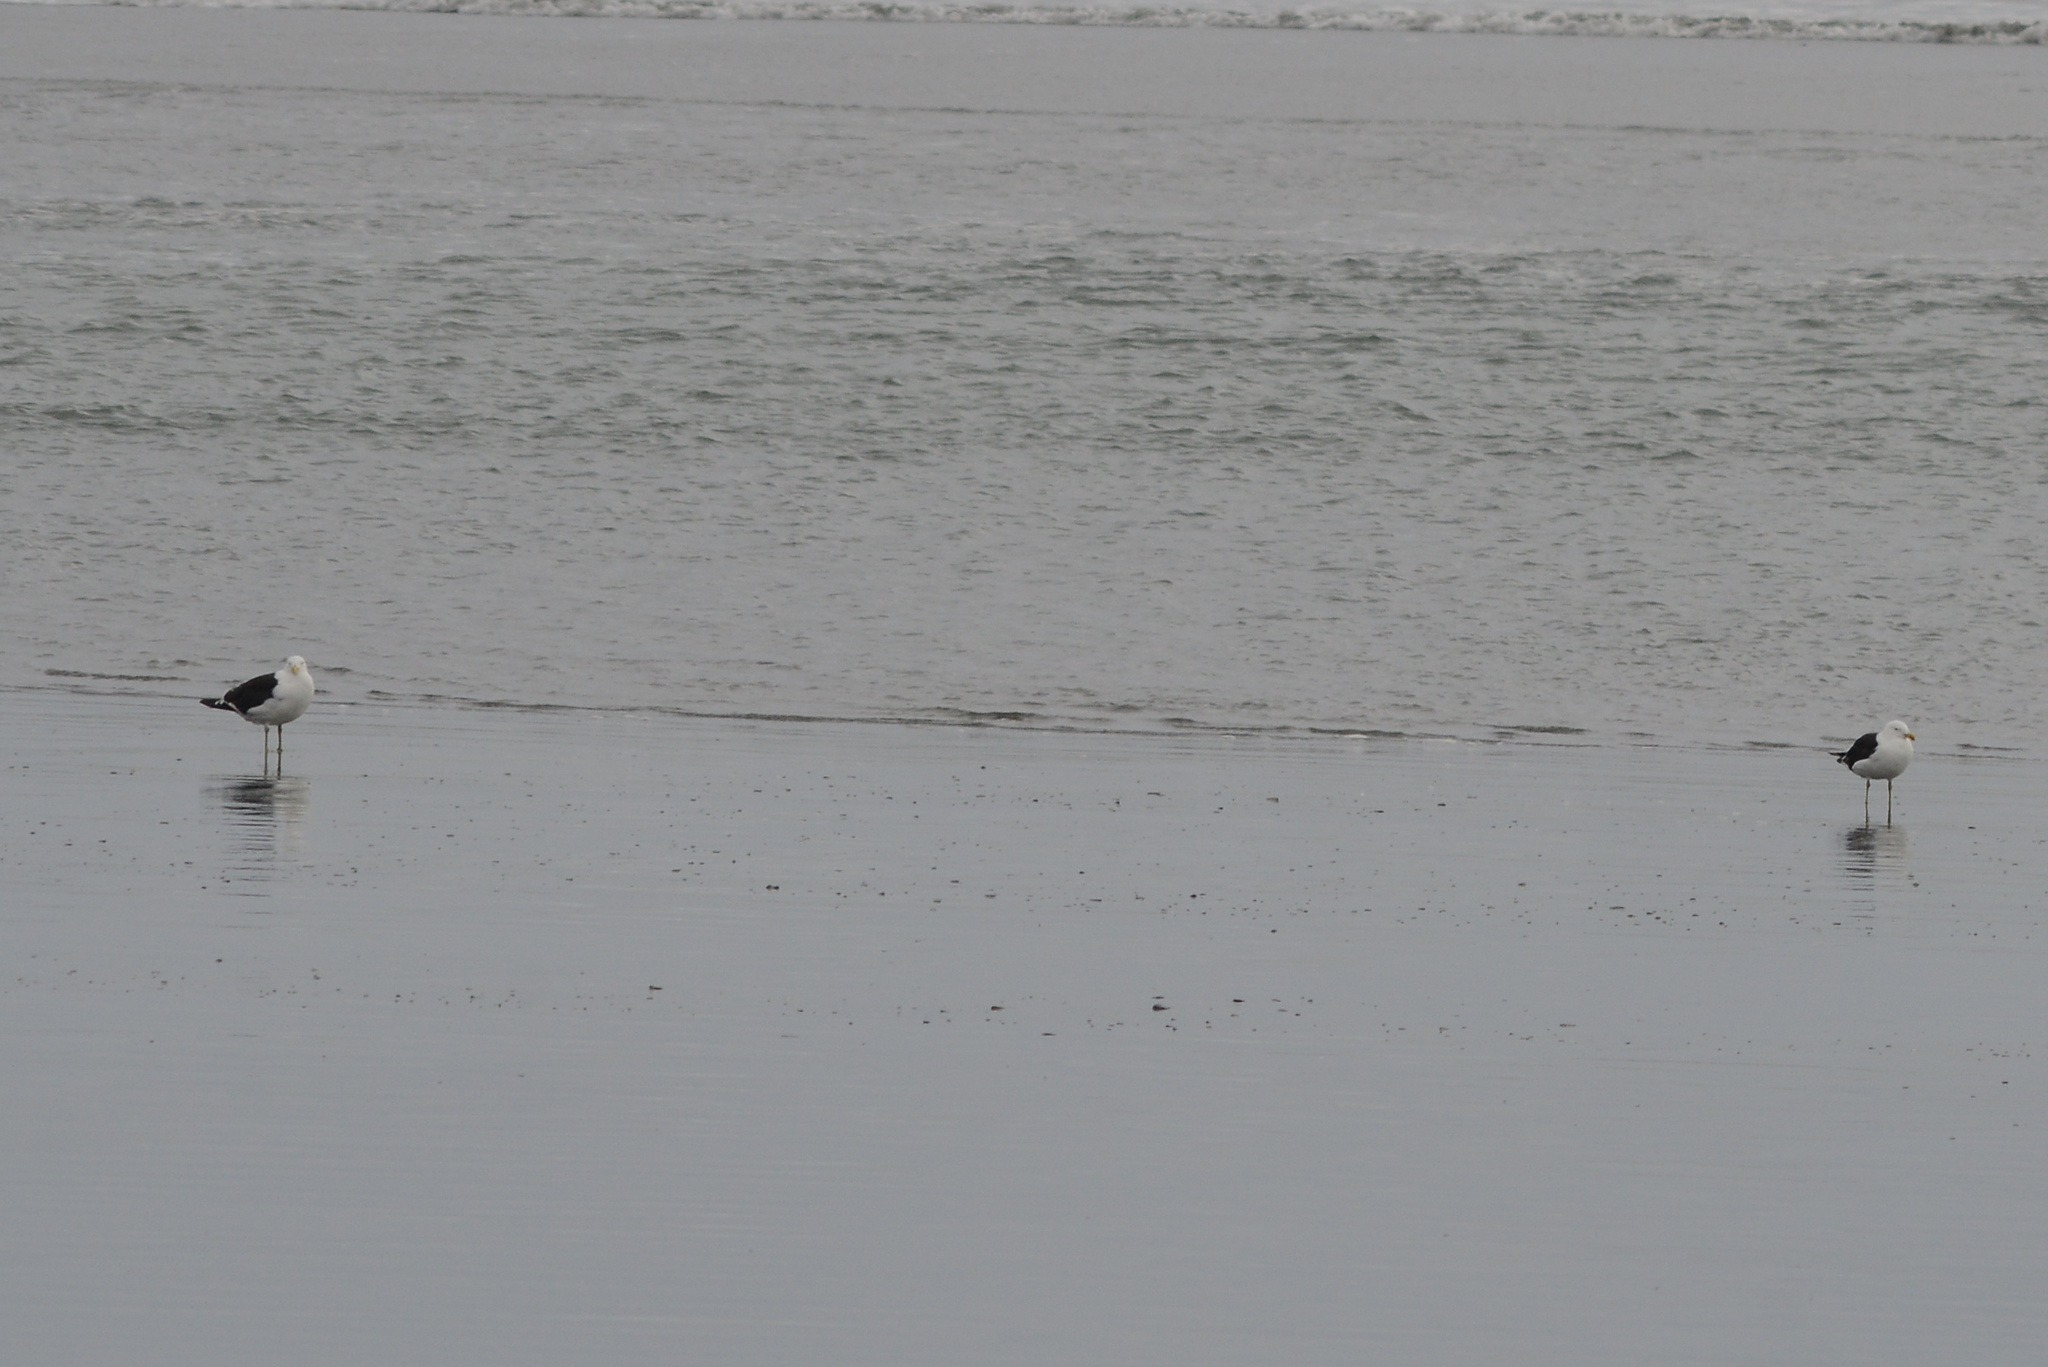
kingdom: Animalia
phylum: Chordata
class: Aves
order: Charadriiformes
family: Laridae
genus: Larus
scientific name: Larus dominicanus
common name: Kelp gull
